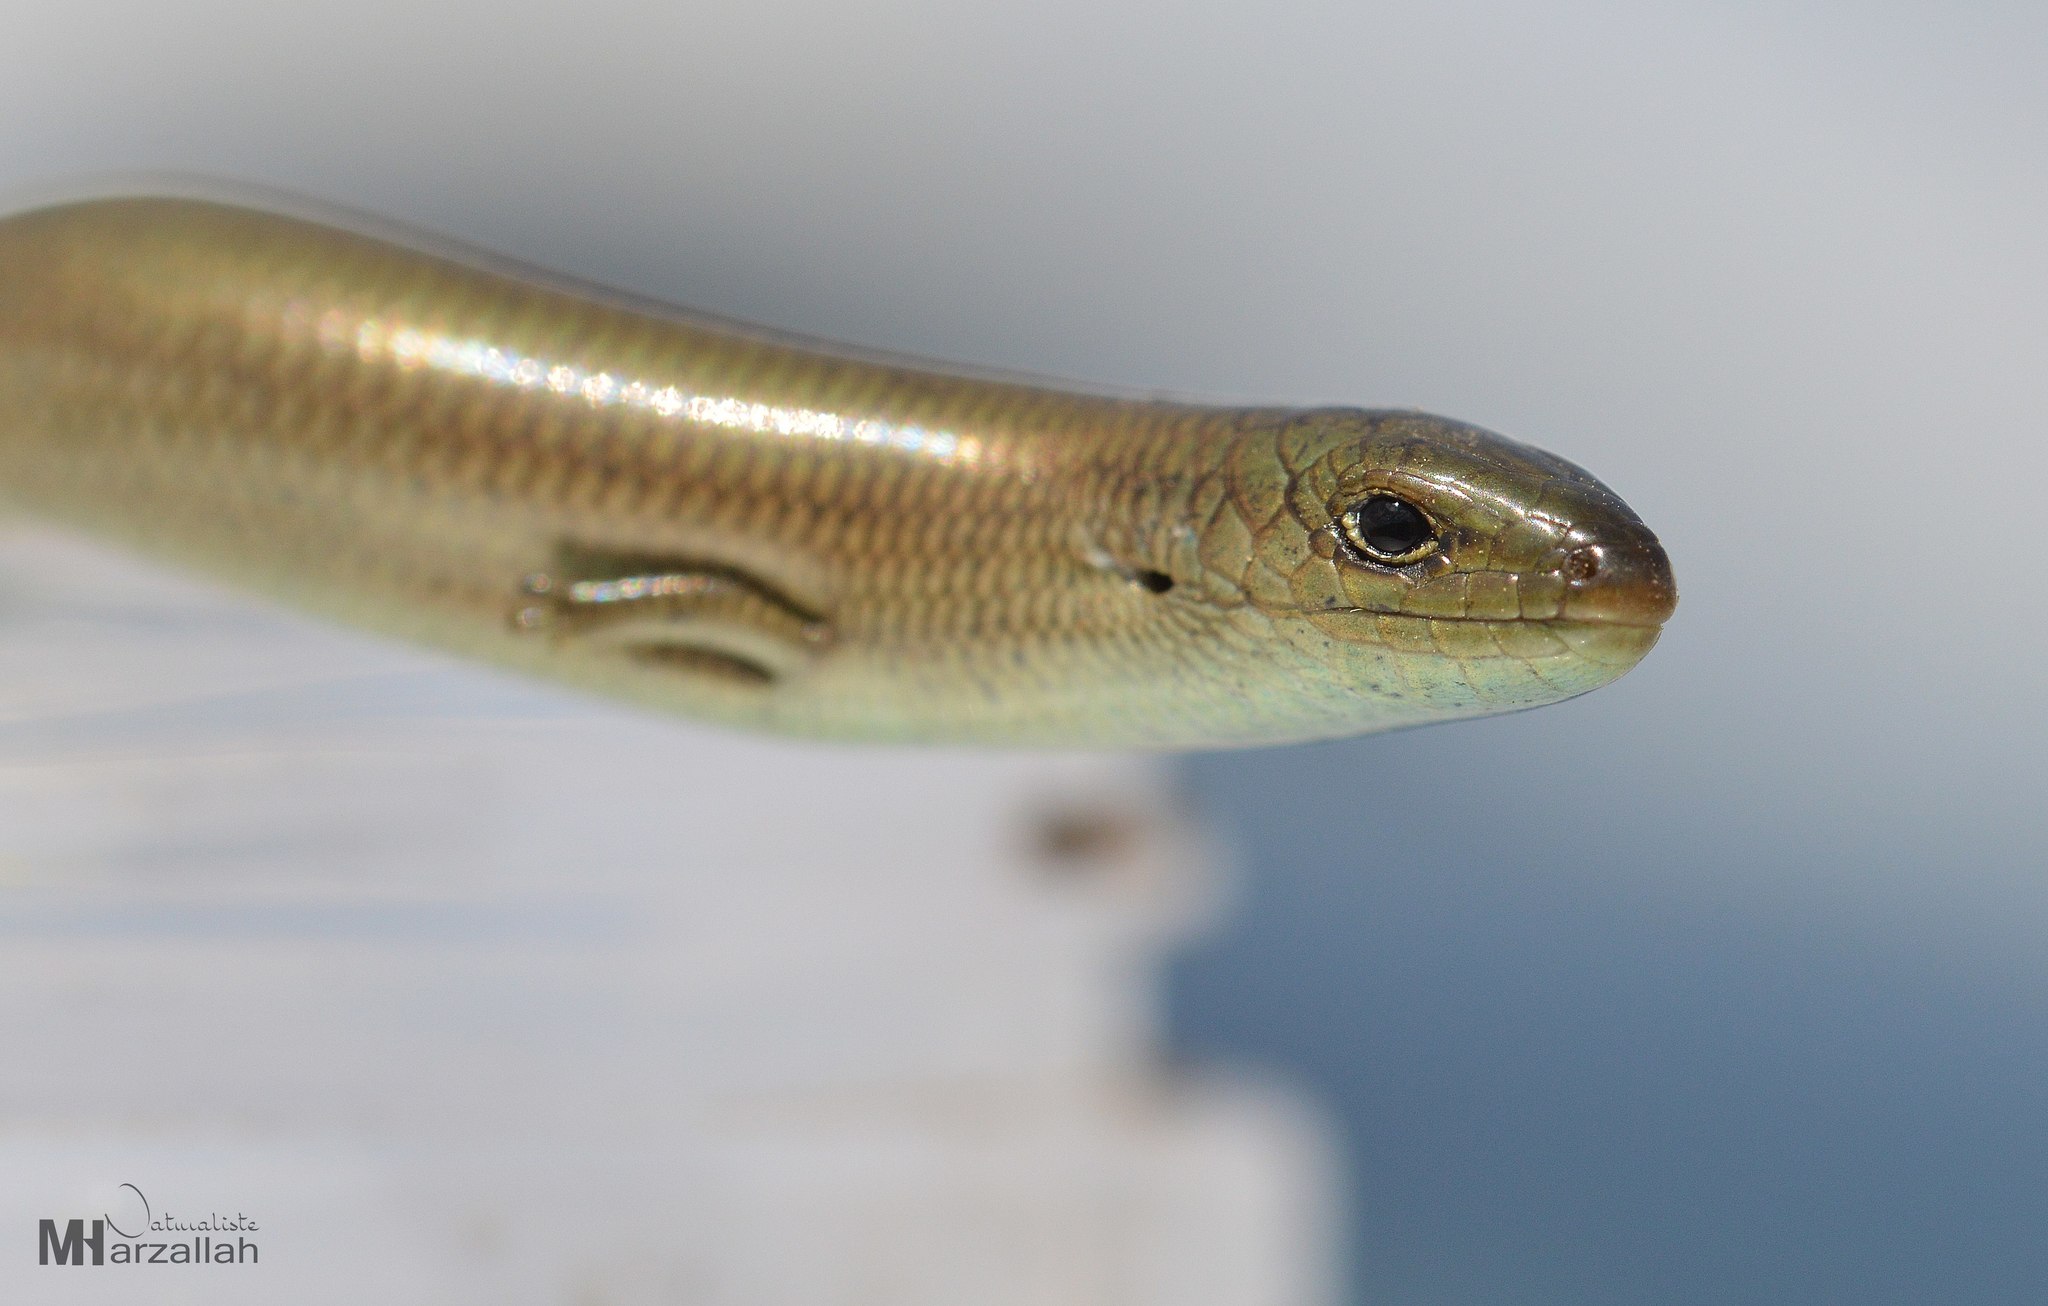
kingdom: Animalia
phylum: Chordata
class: Squamata
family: Scincidae
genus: Chalcides
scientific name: Chalcides mertensi
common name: Algerian three-toed skink
